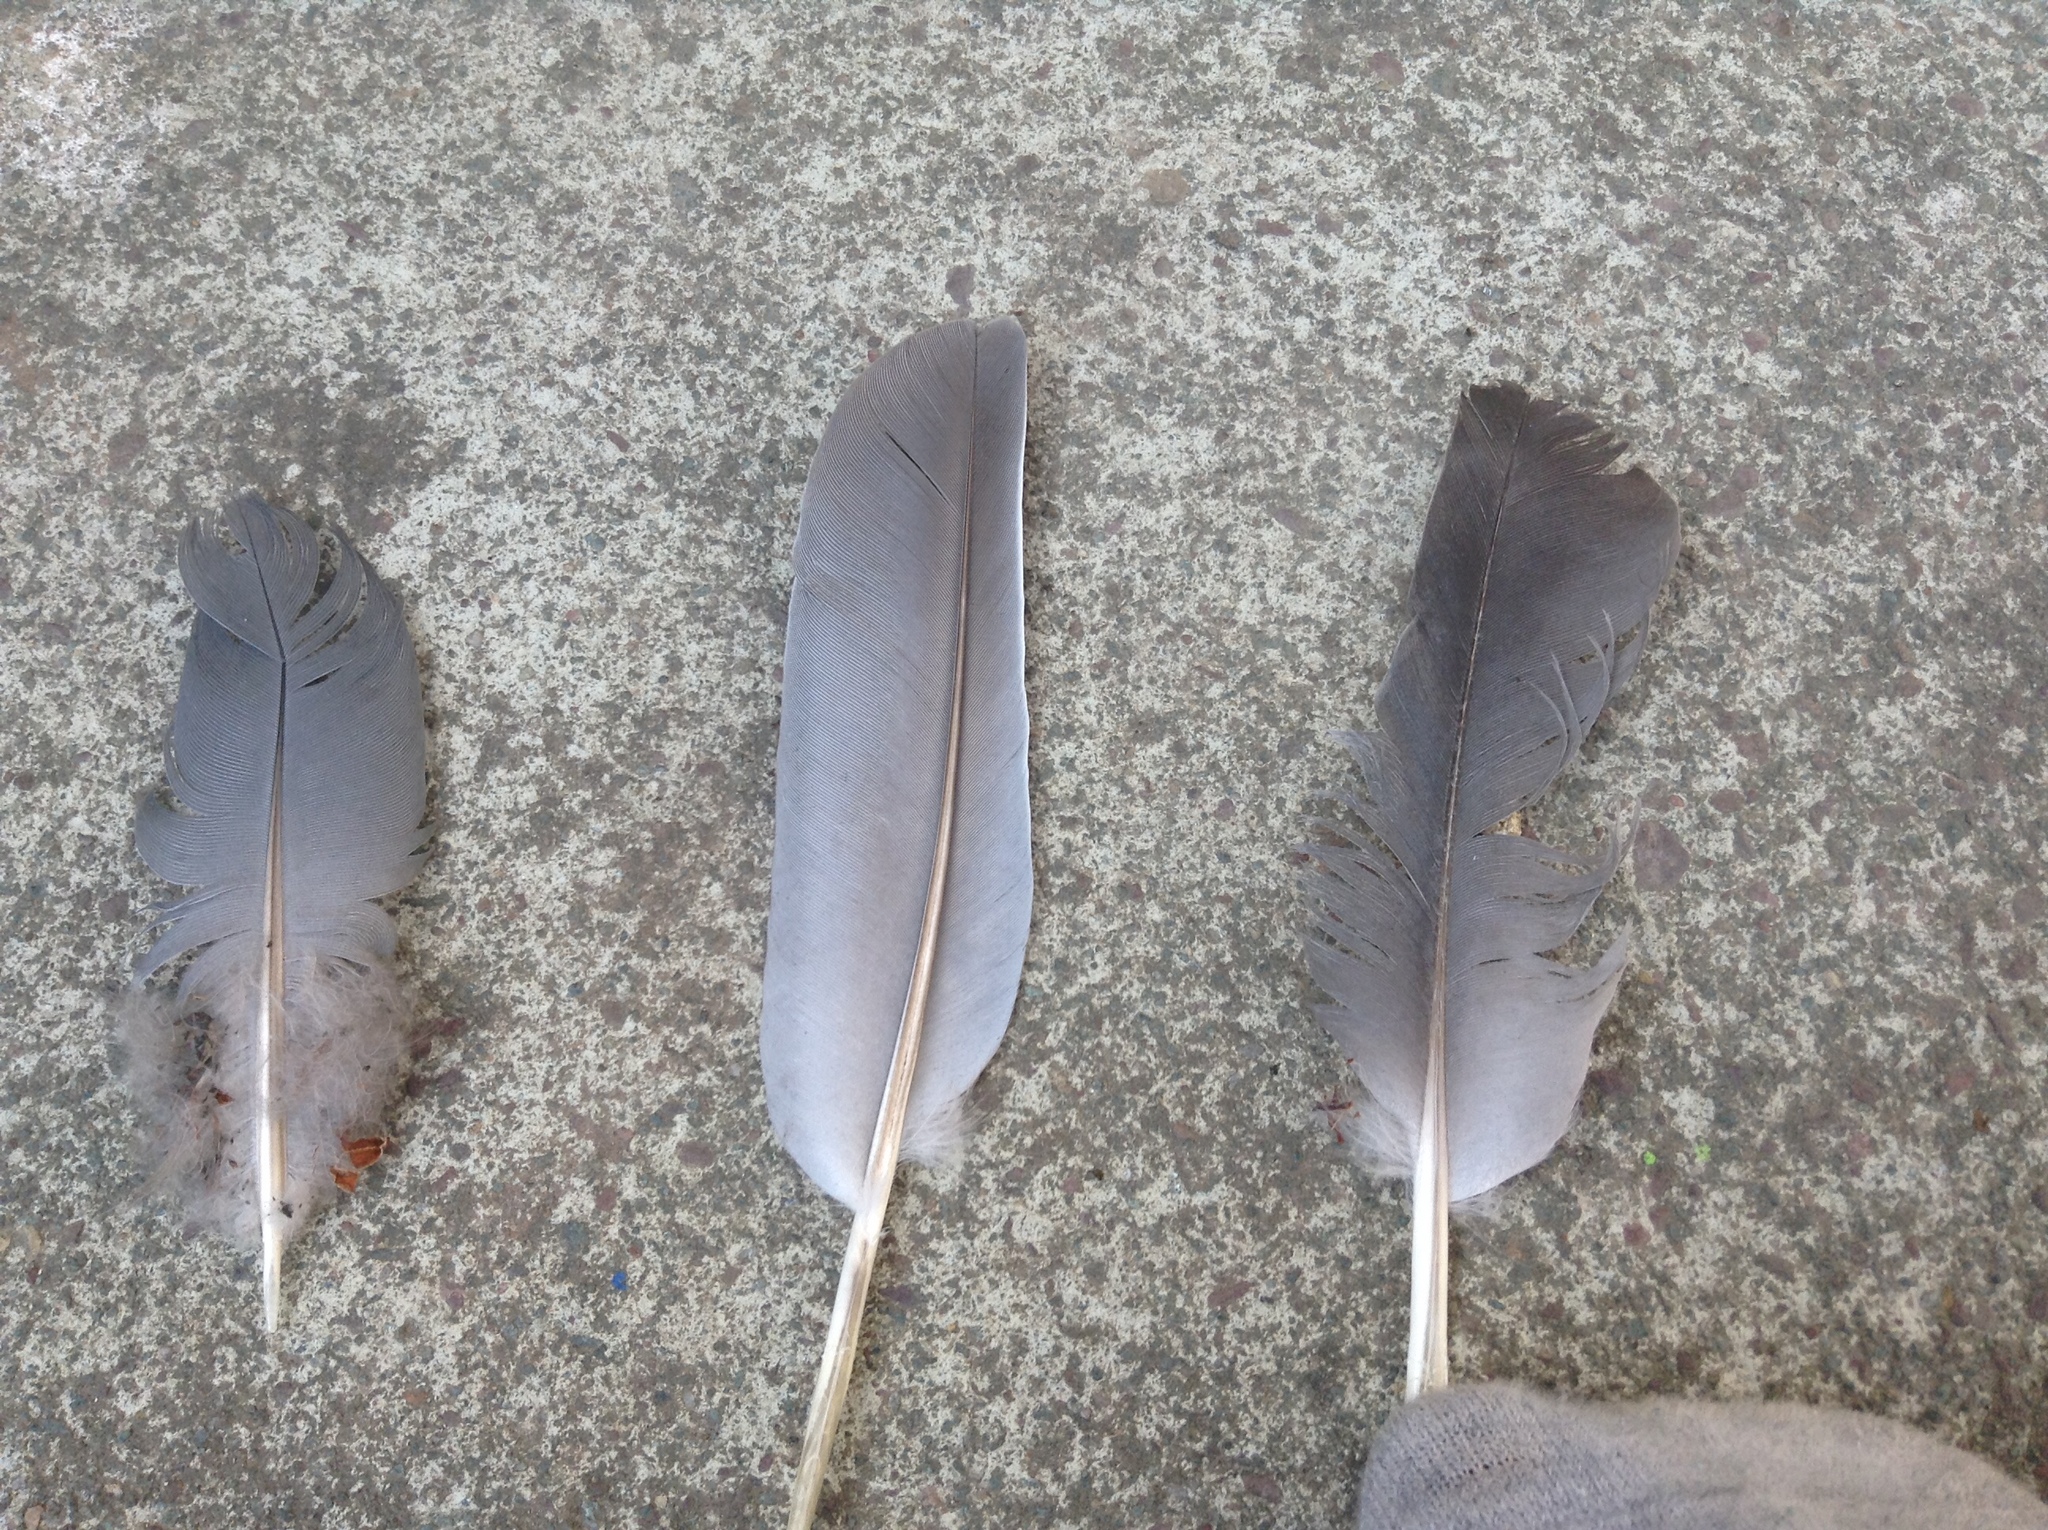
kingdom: Animalia
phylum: Chordata
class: Aves
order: Columbiformes
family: Columbidae
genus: Columba
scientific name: Columba palumbus
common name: Common wood pigeon
